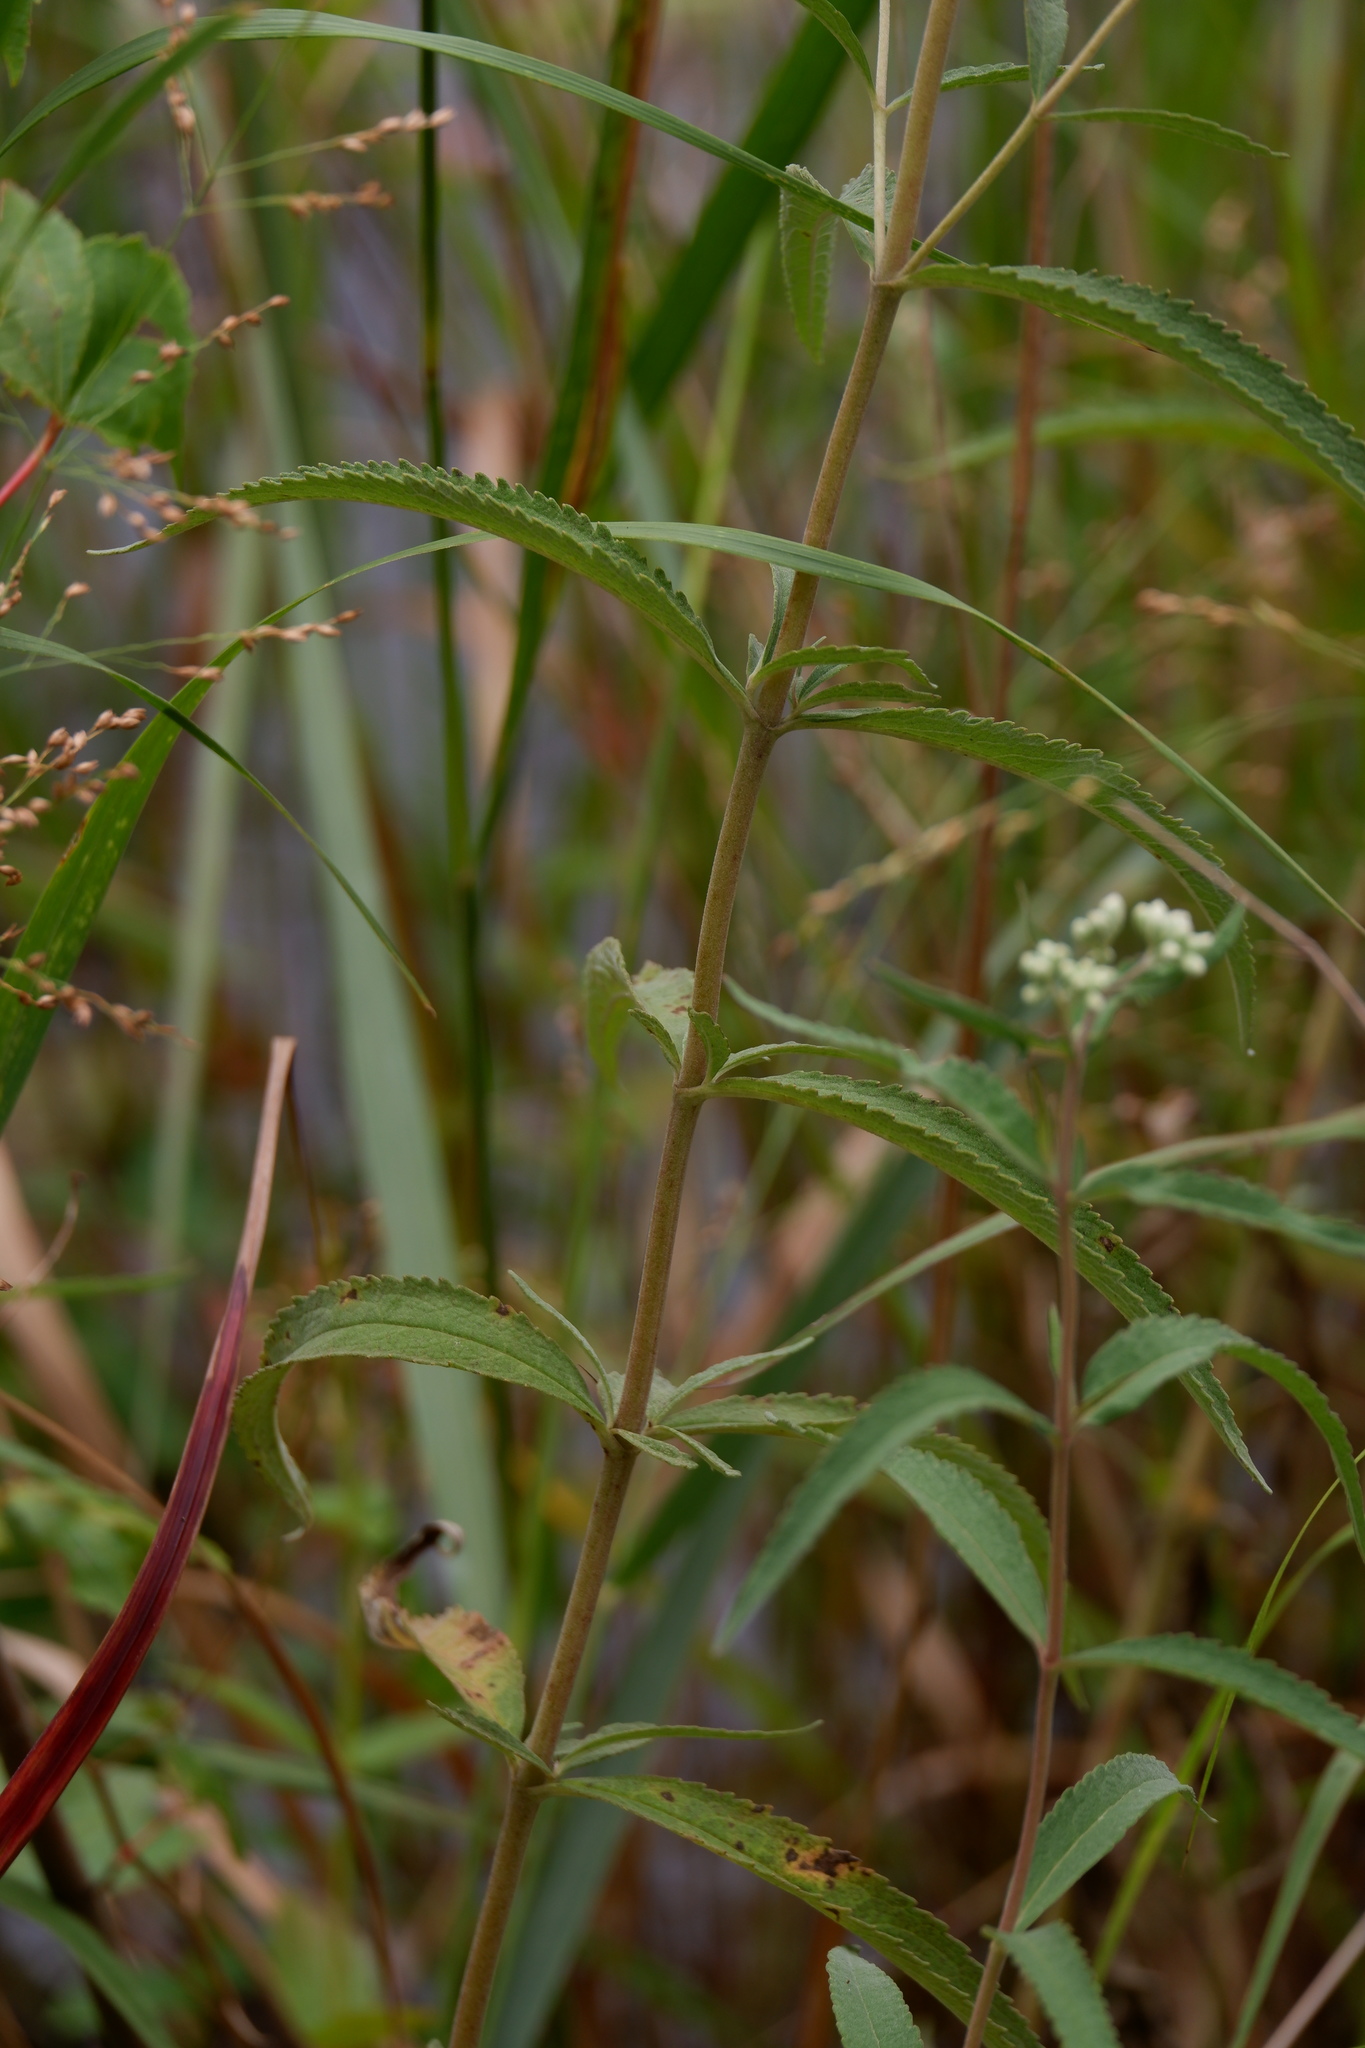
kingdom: Plantae
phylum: Tracheophyta
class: Magnoliopsida
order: Asterales
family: Asteraceae
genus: Eupatorium
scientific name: Eupatorium resinosum
